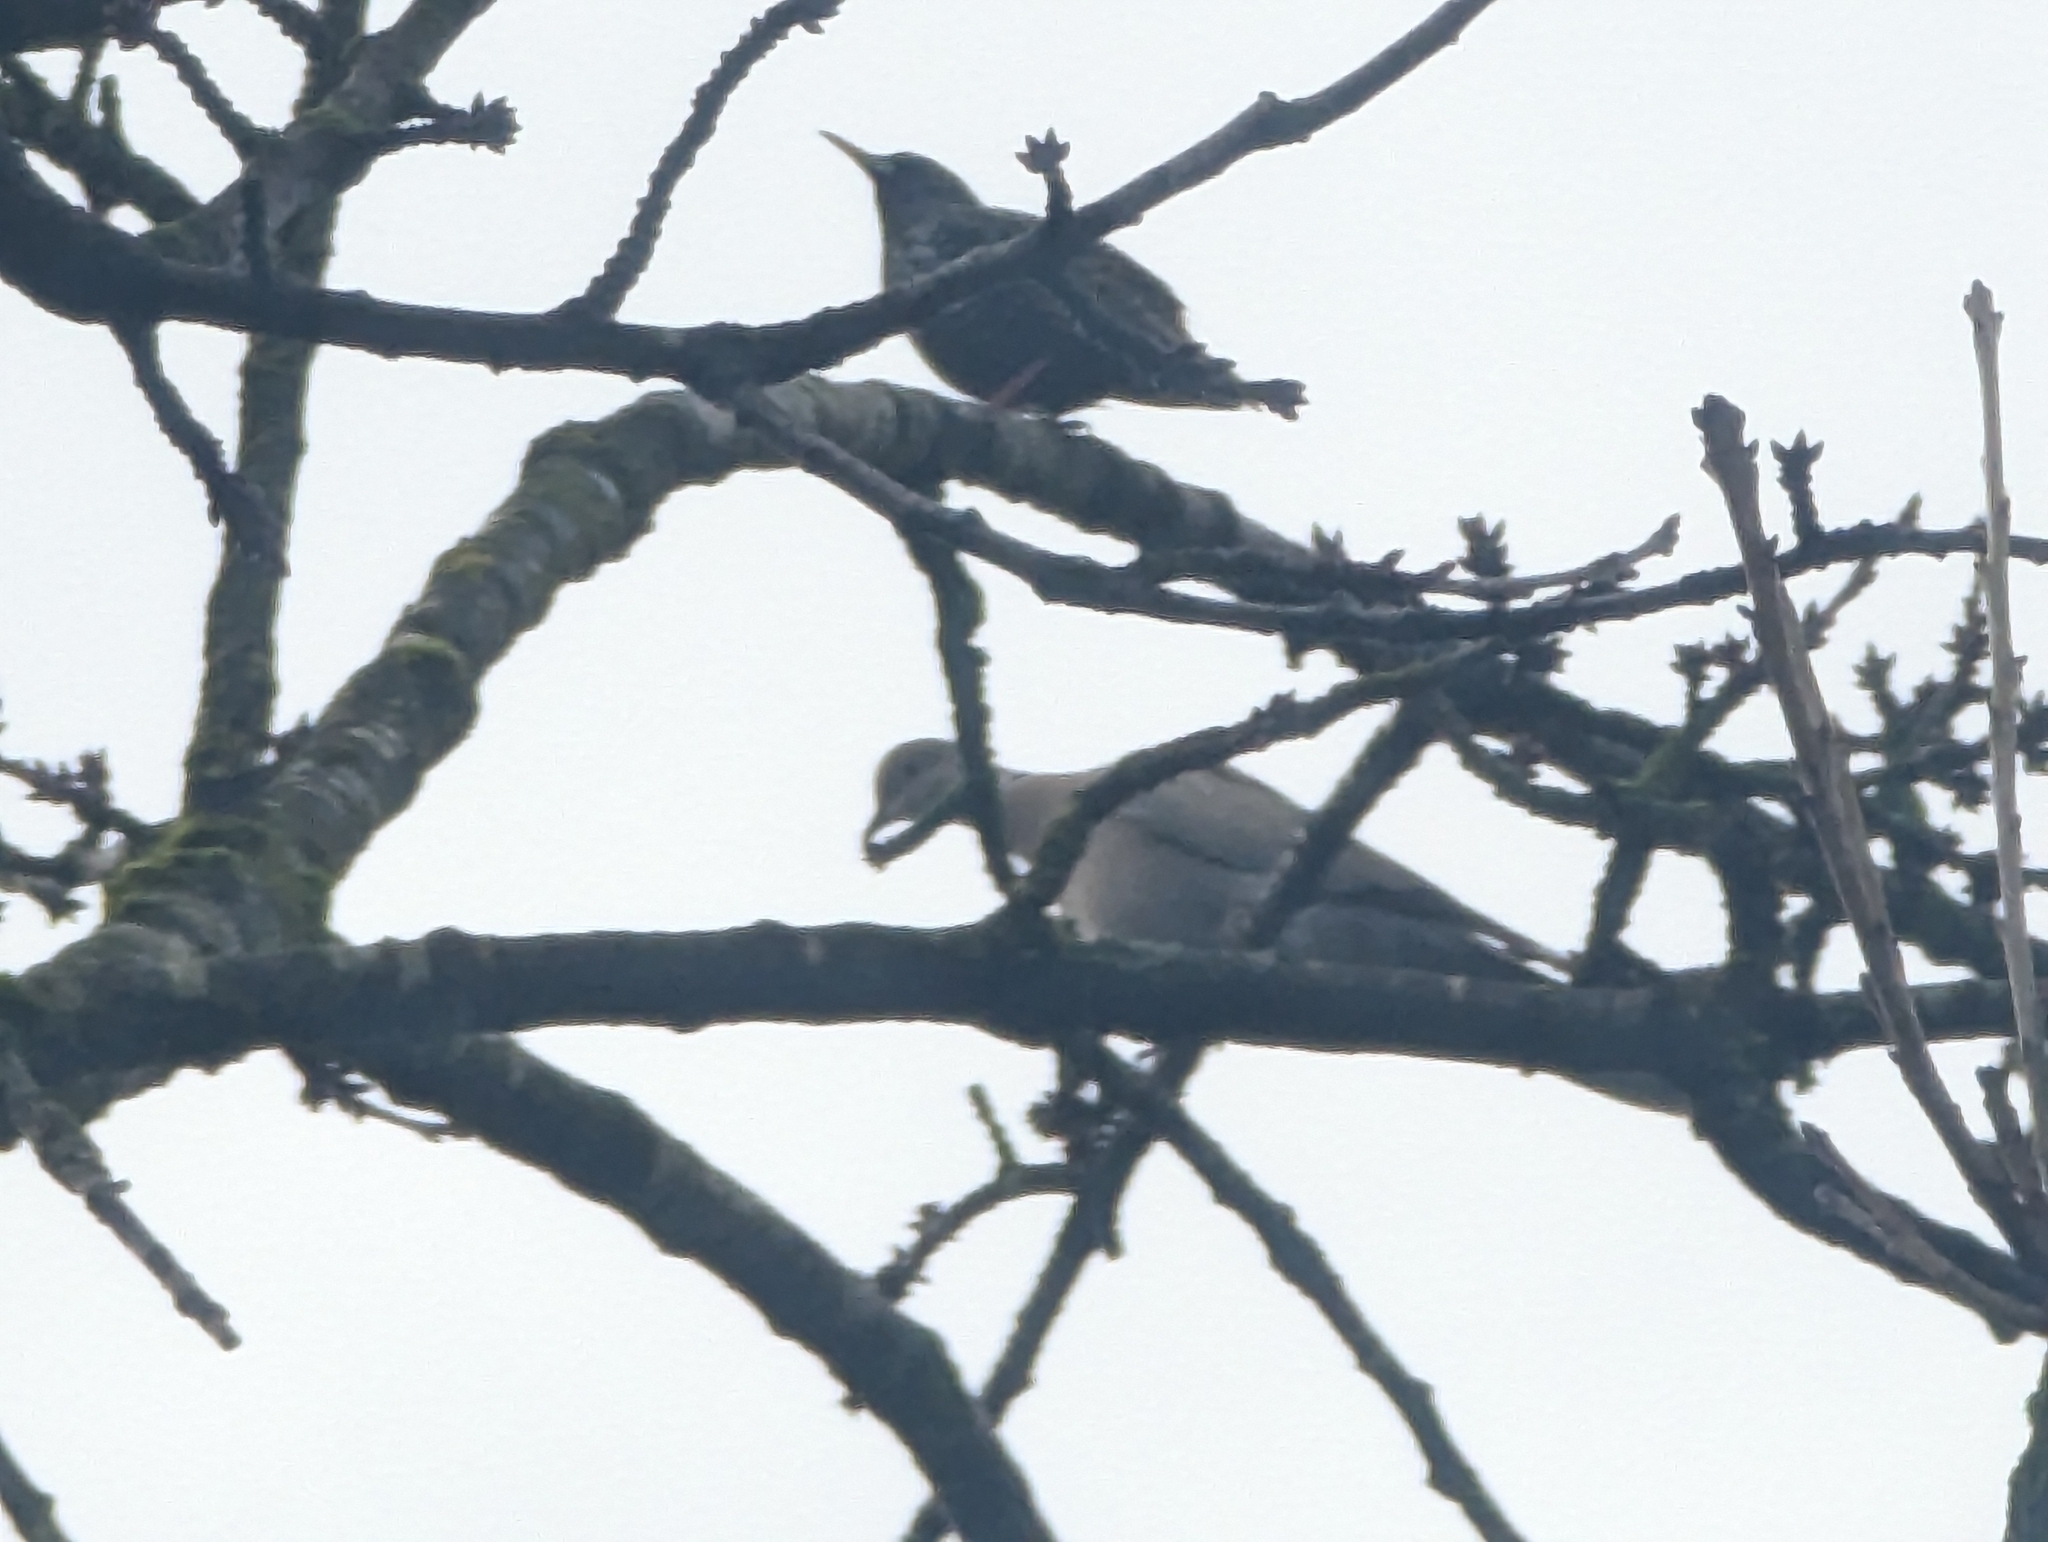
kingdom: Animalia
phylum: Chordata
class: Aves
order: Columbiformes
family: Columbidae
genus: Streptopelia
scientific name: Streptopelia decaocto
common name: Eurasian collared dove
